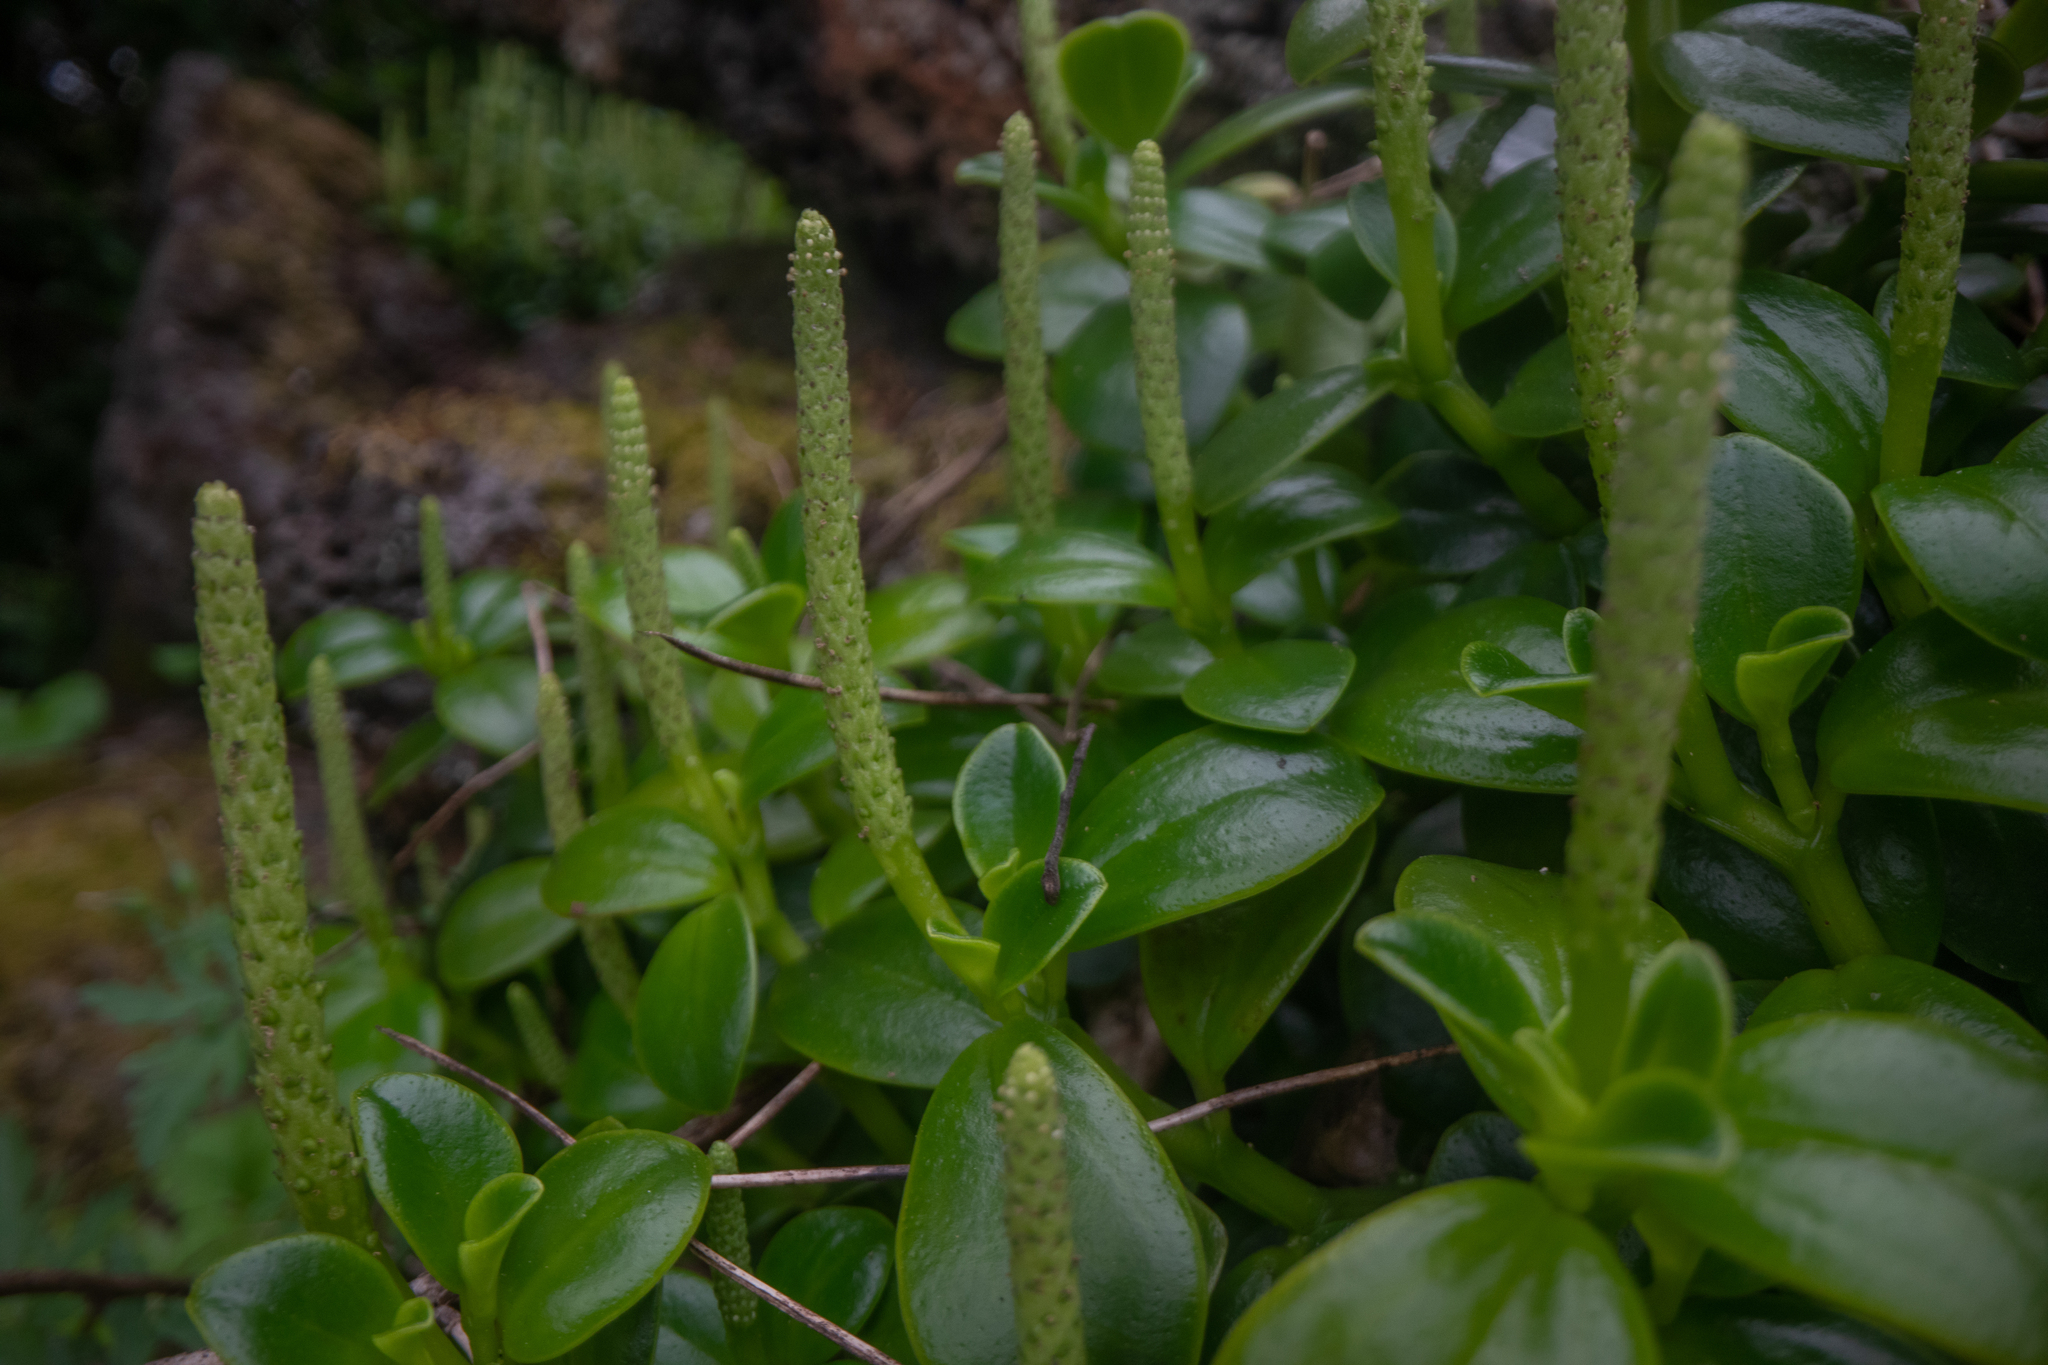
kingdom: Plantae
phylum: Tracheophyta
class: Magnoliopsida
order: Piperales
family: Piperaceae
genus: Peperomia
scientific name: Peperomia urvilleana
